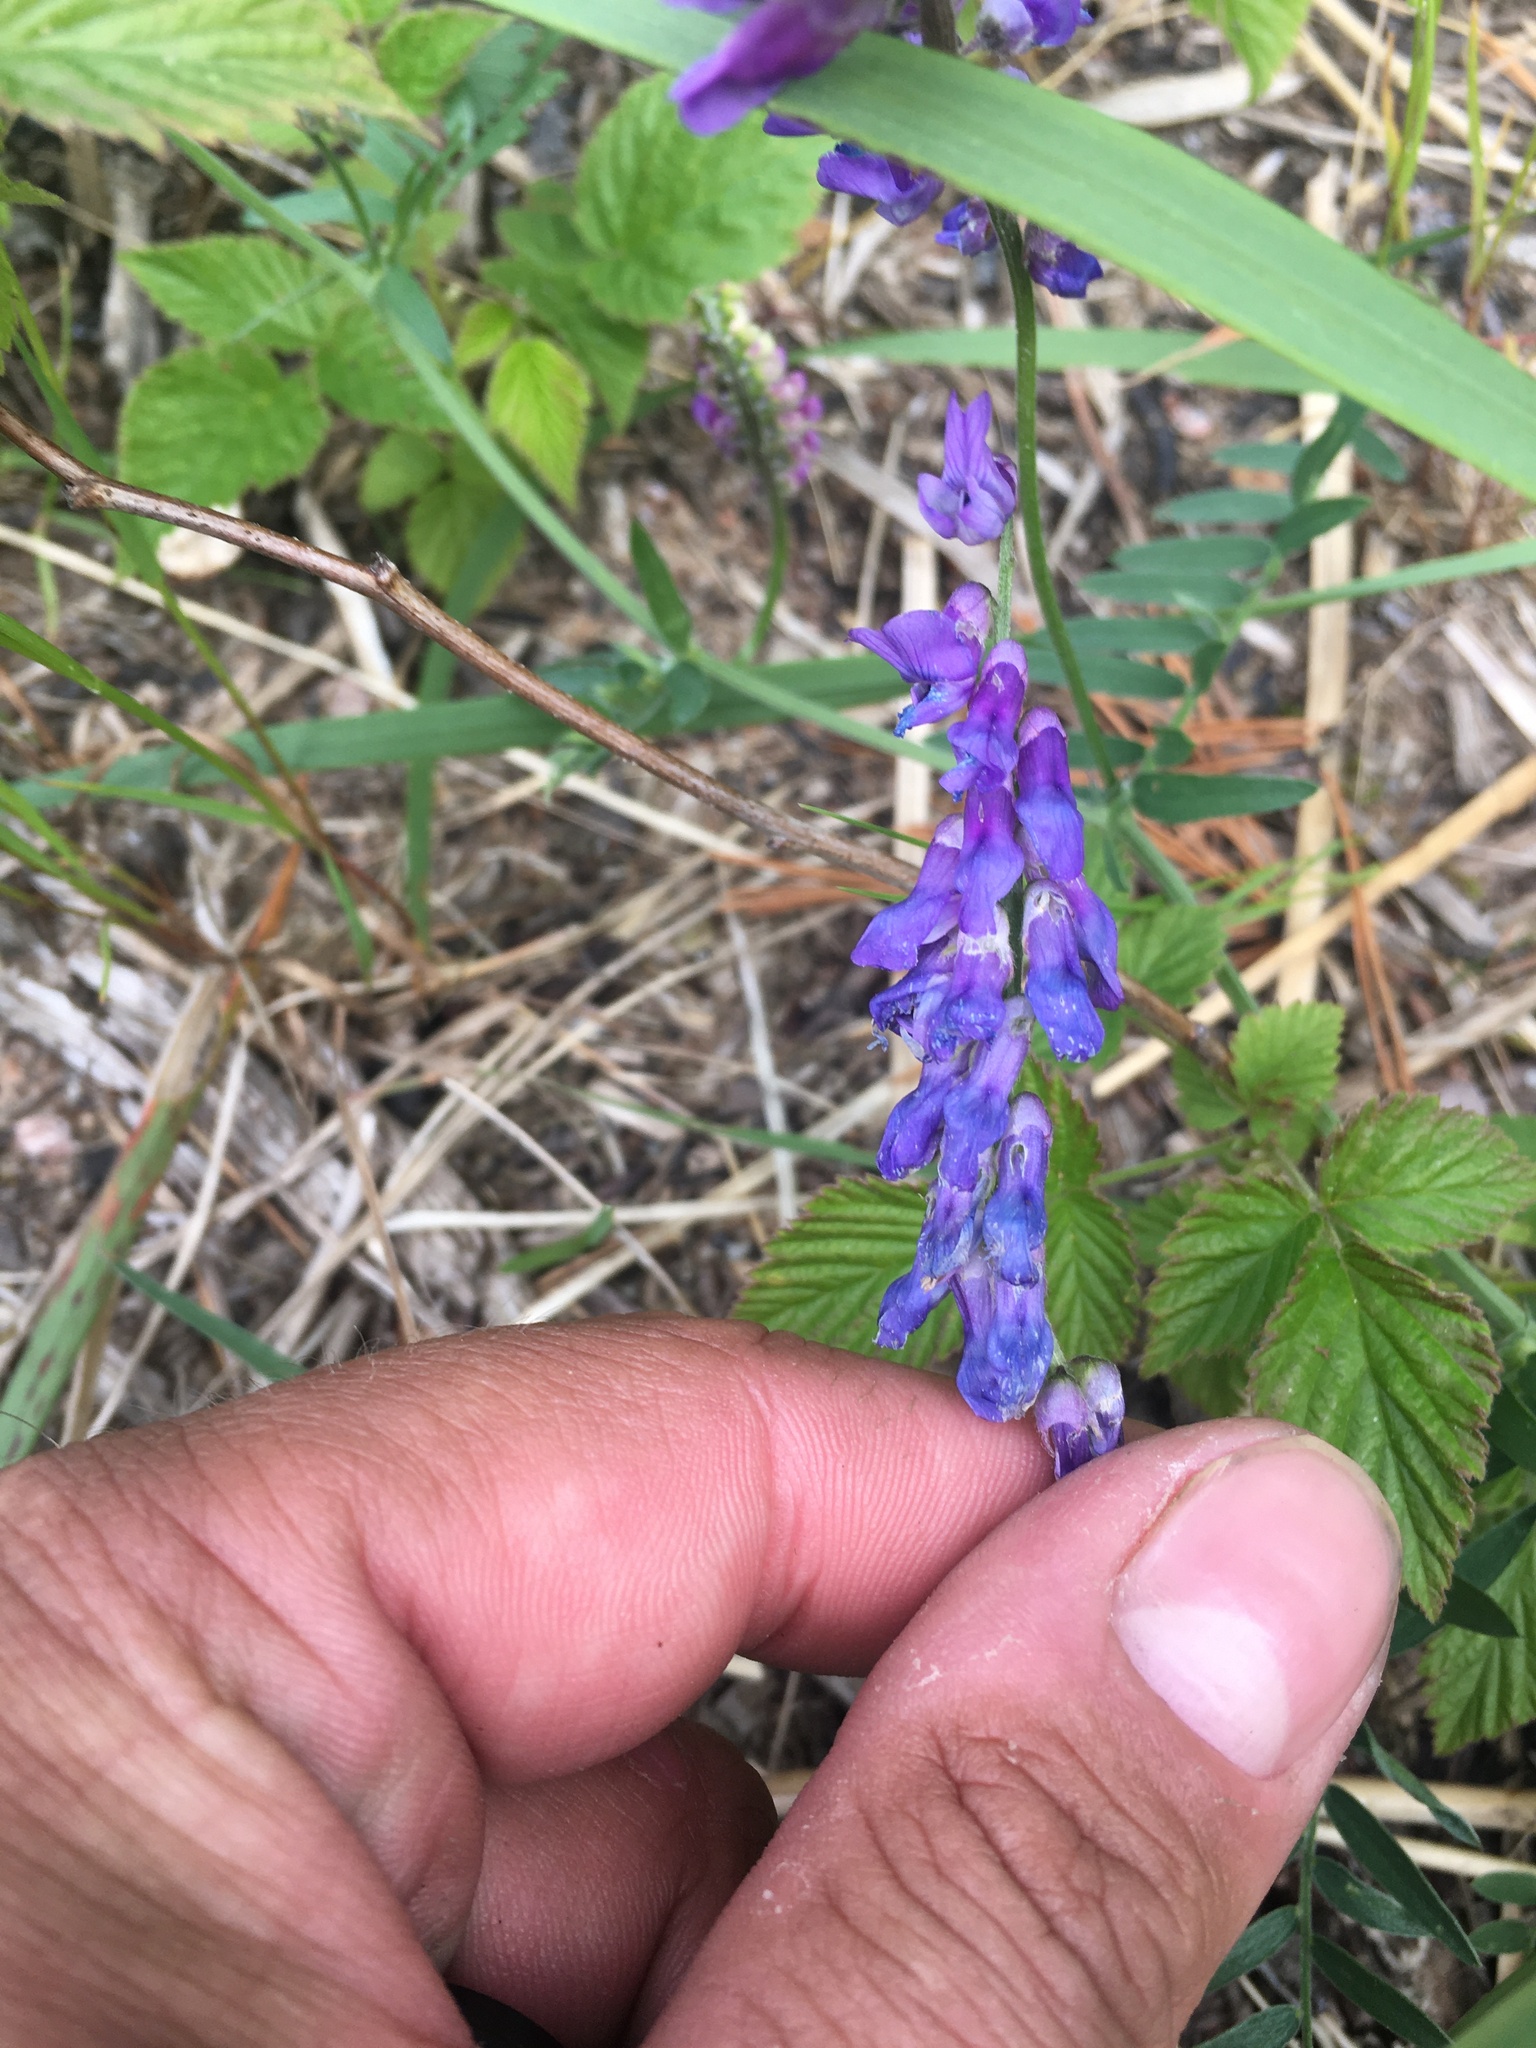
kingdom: Plantae
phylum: Tracheophyta
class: Magnoliopsida
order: Fabales
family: Fabaceae
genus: Vicia
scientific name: Vicia cracca
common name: Bird vetch
